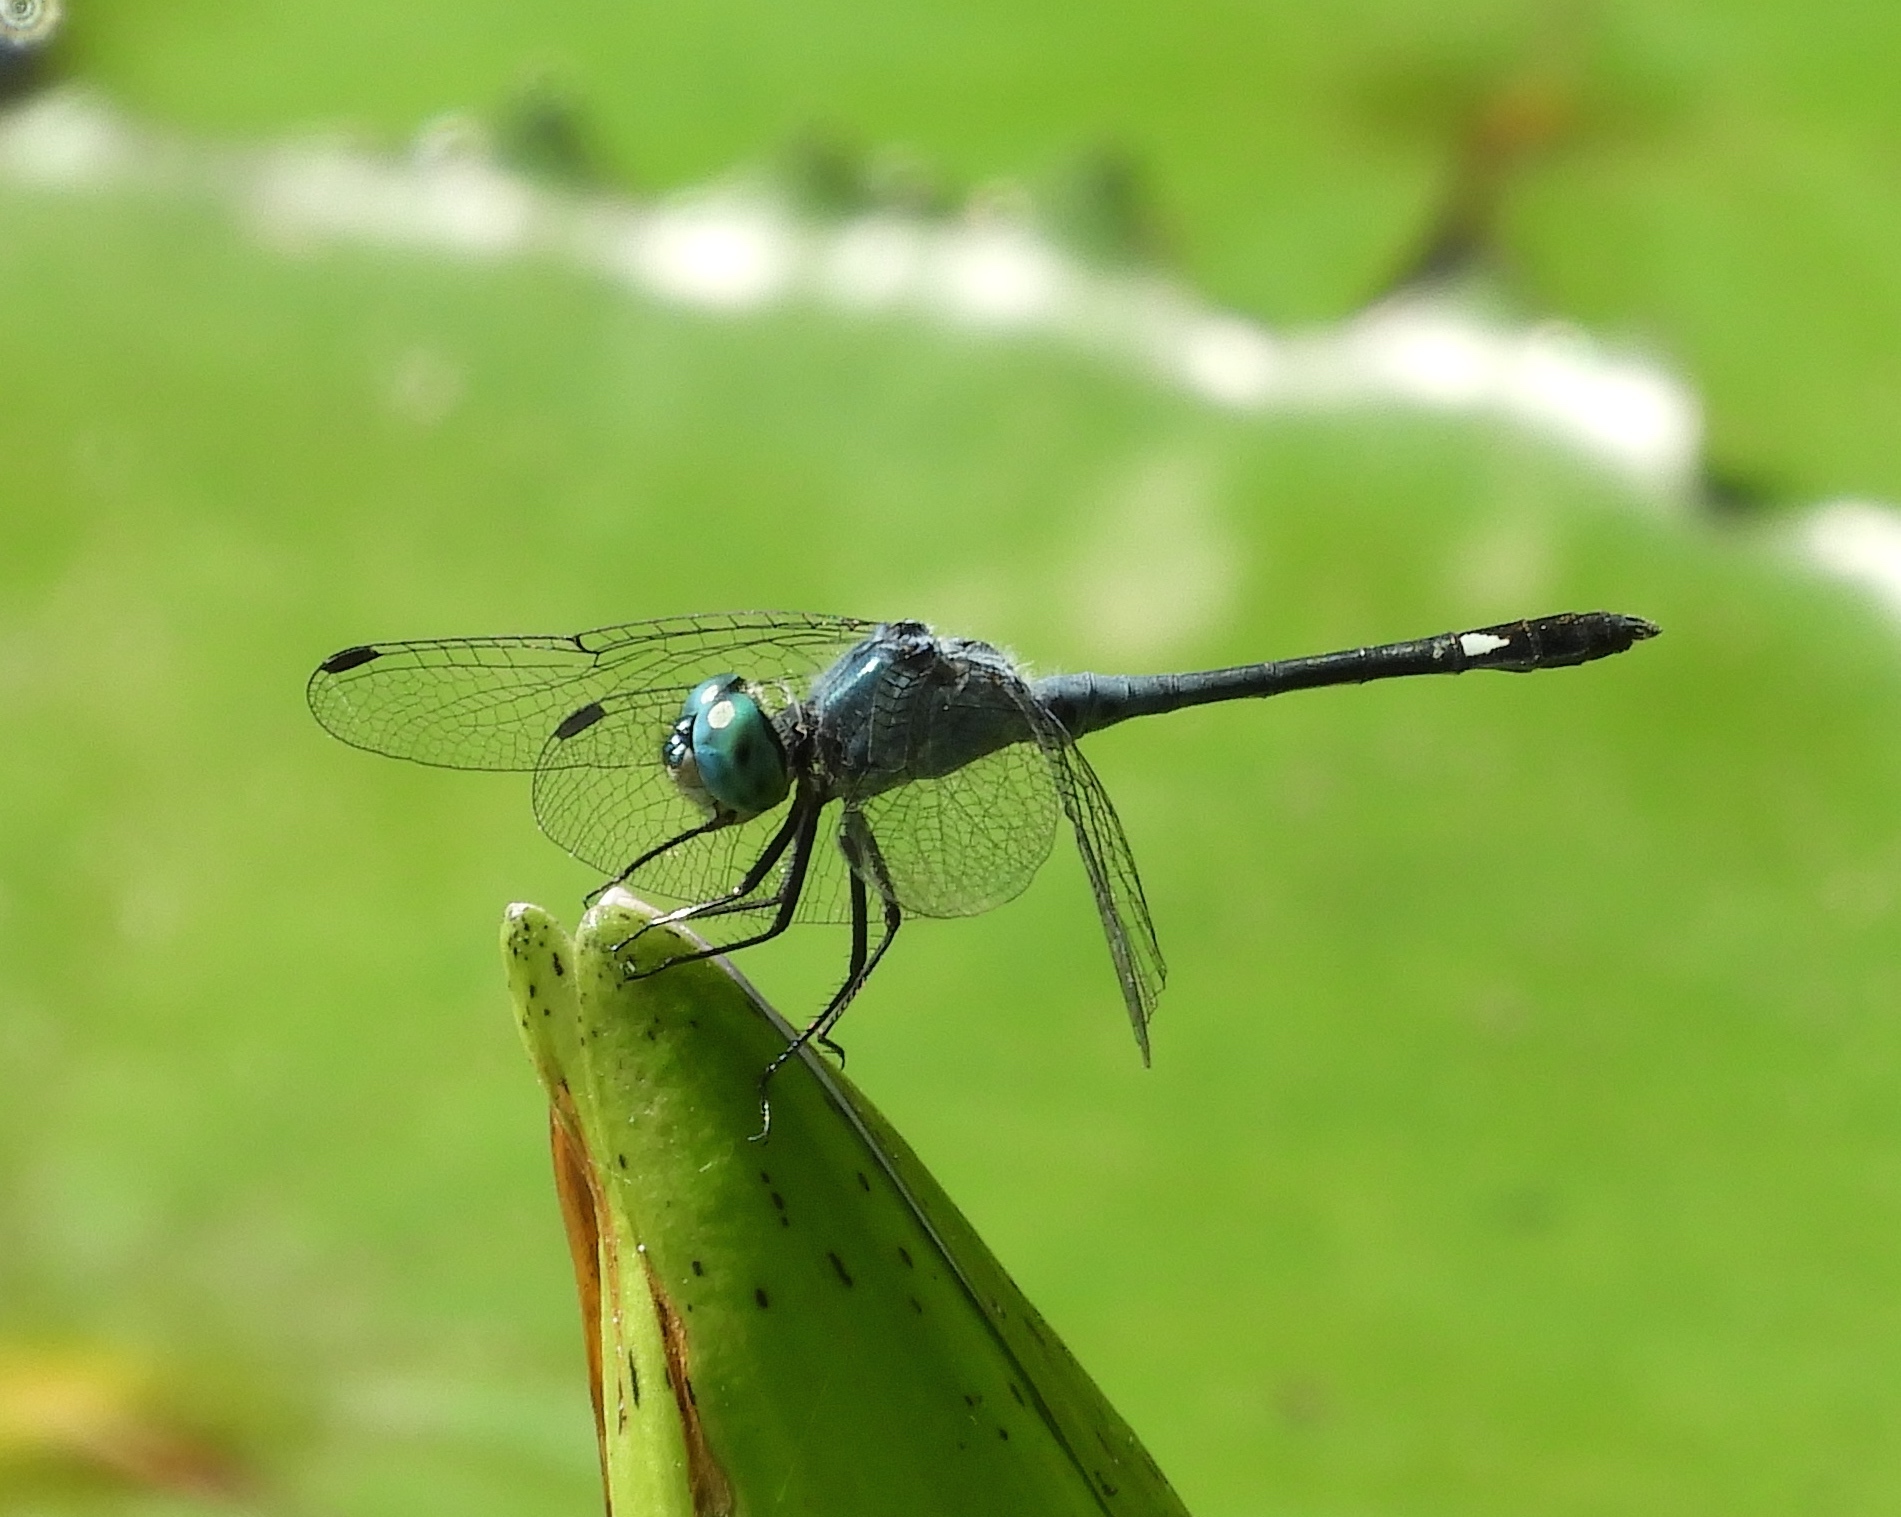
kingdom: Animalia
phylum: Arthropoda
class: Insecta
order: Odonata
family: Libellulidae
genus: Micrathyria
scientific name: Micrathyria aequalis
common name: Spot-tailed dasher
